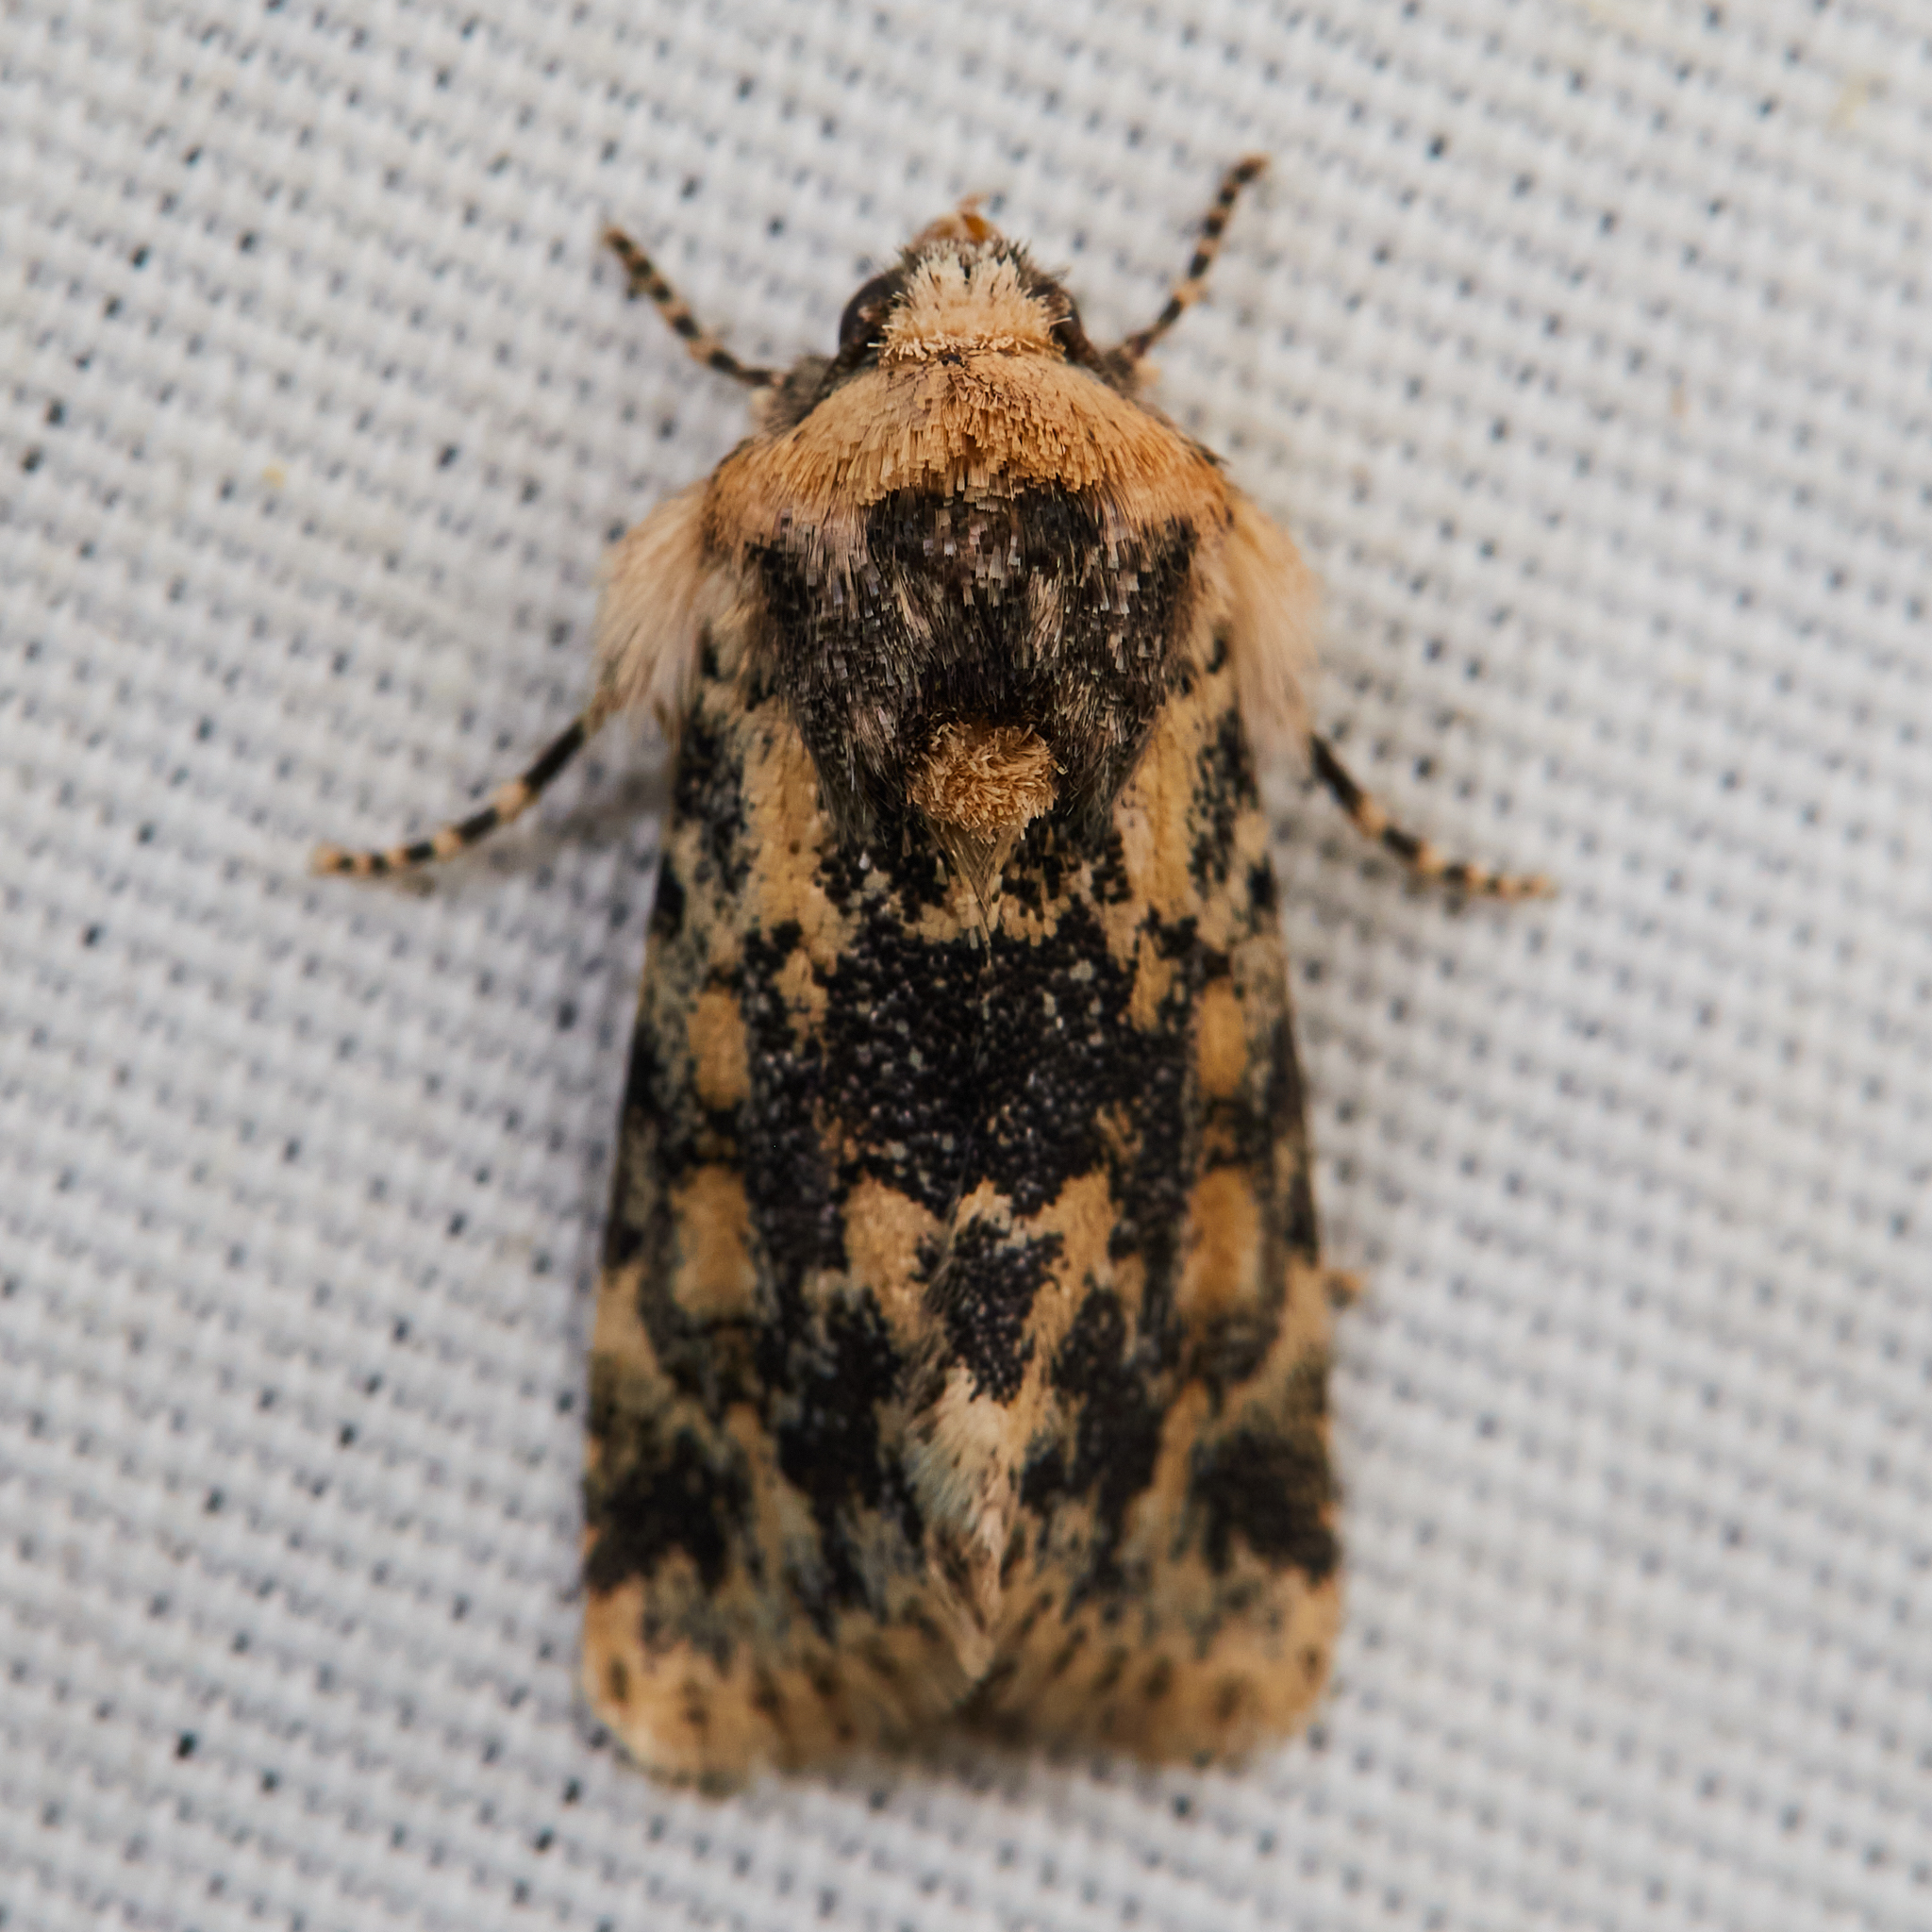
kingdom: Animalia
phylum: Arthropoda
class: Insecta
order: Lepidoptera
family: Noctuidae
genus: Sympistis
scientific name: Sympistis singularis
